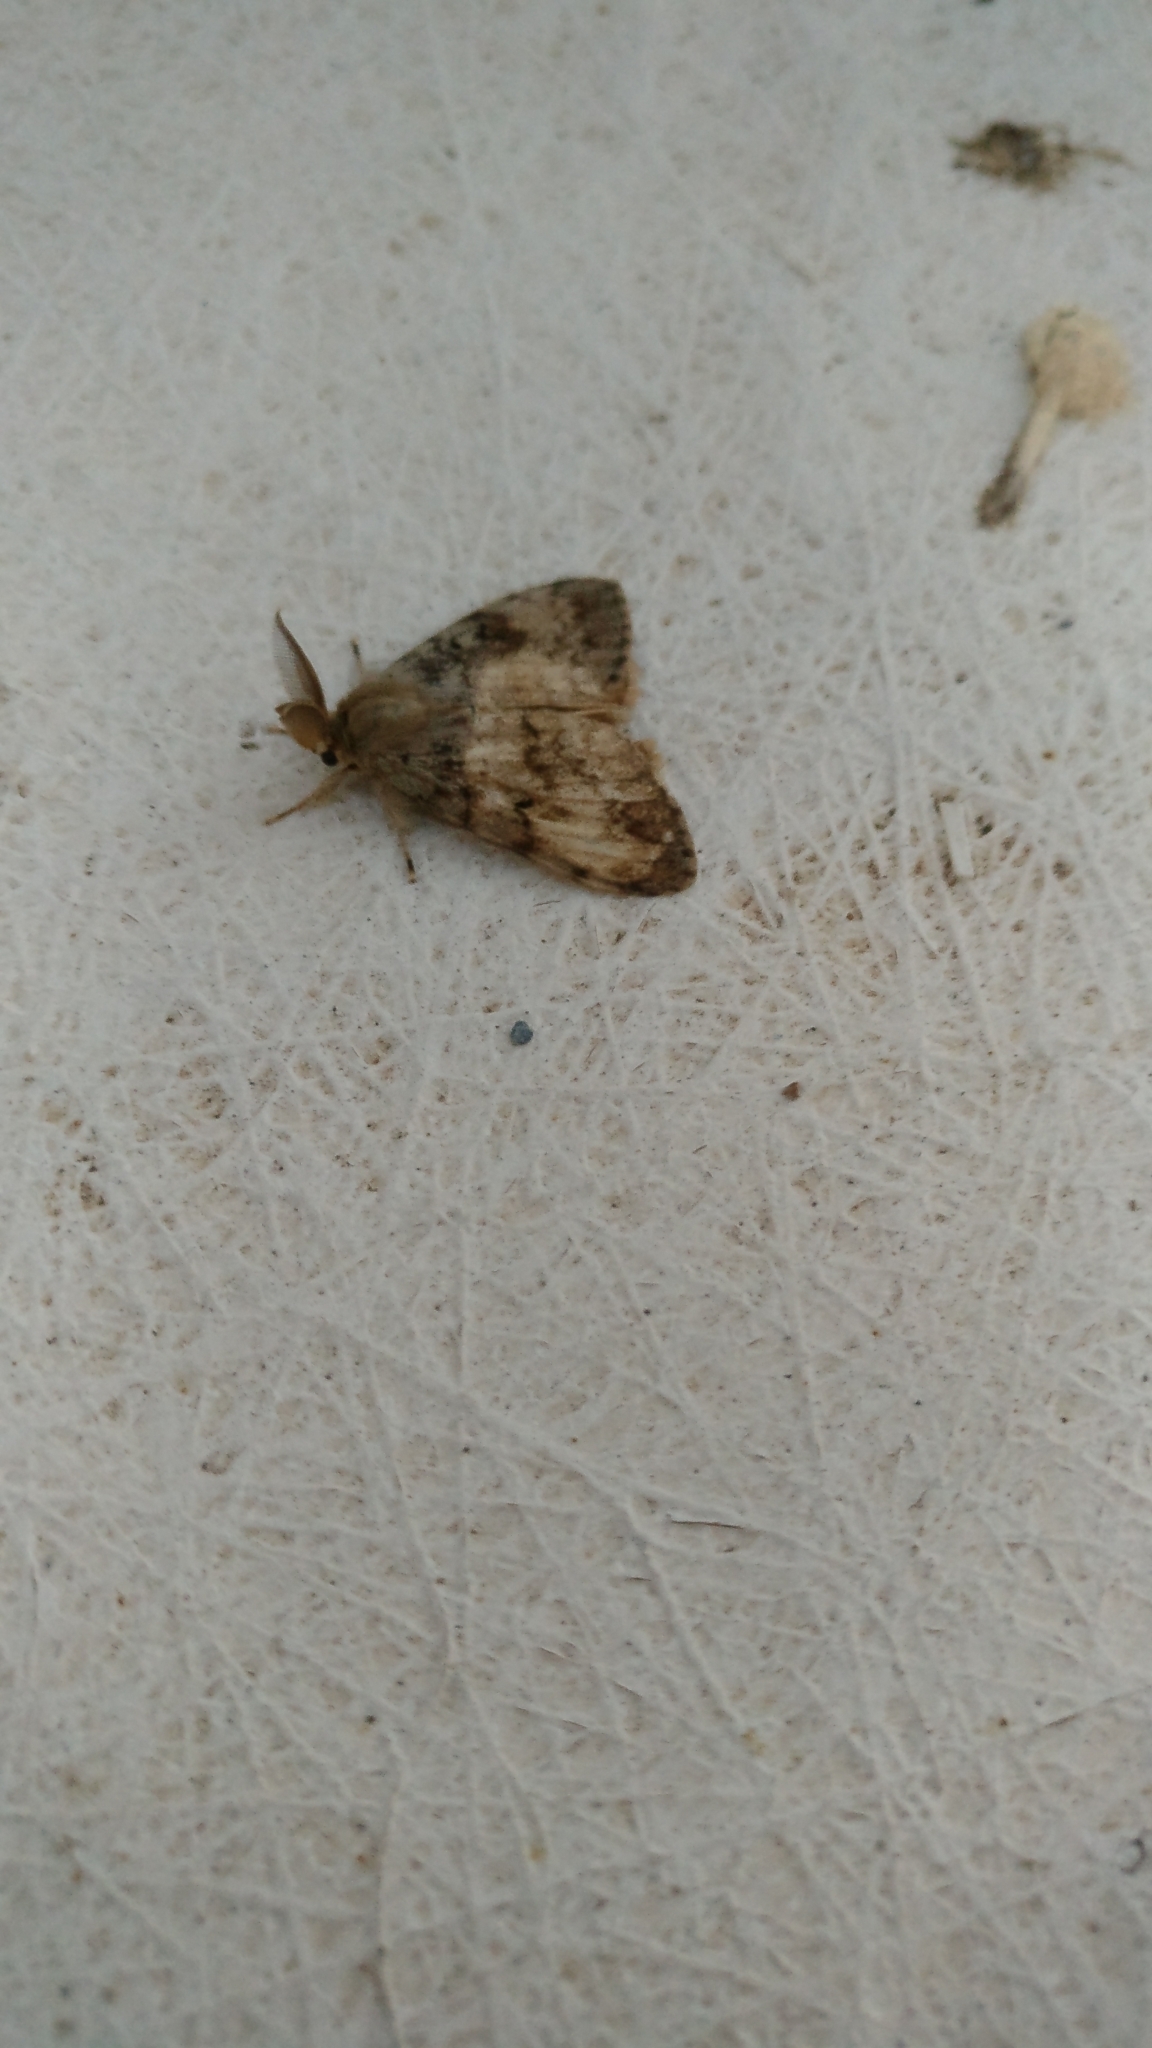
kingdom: Animalia
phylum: Arthropoda
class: Insecta
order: Lepidoptera
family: Erebidae
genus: Lymantria
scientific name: Lymantria dispar
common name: Gypsy moth
